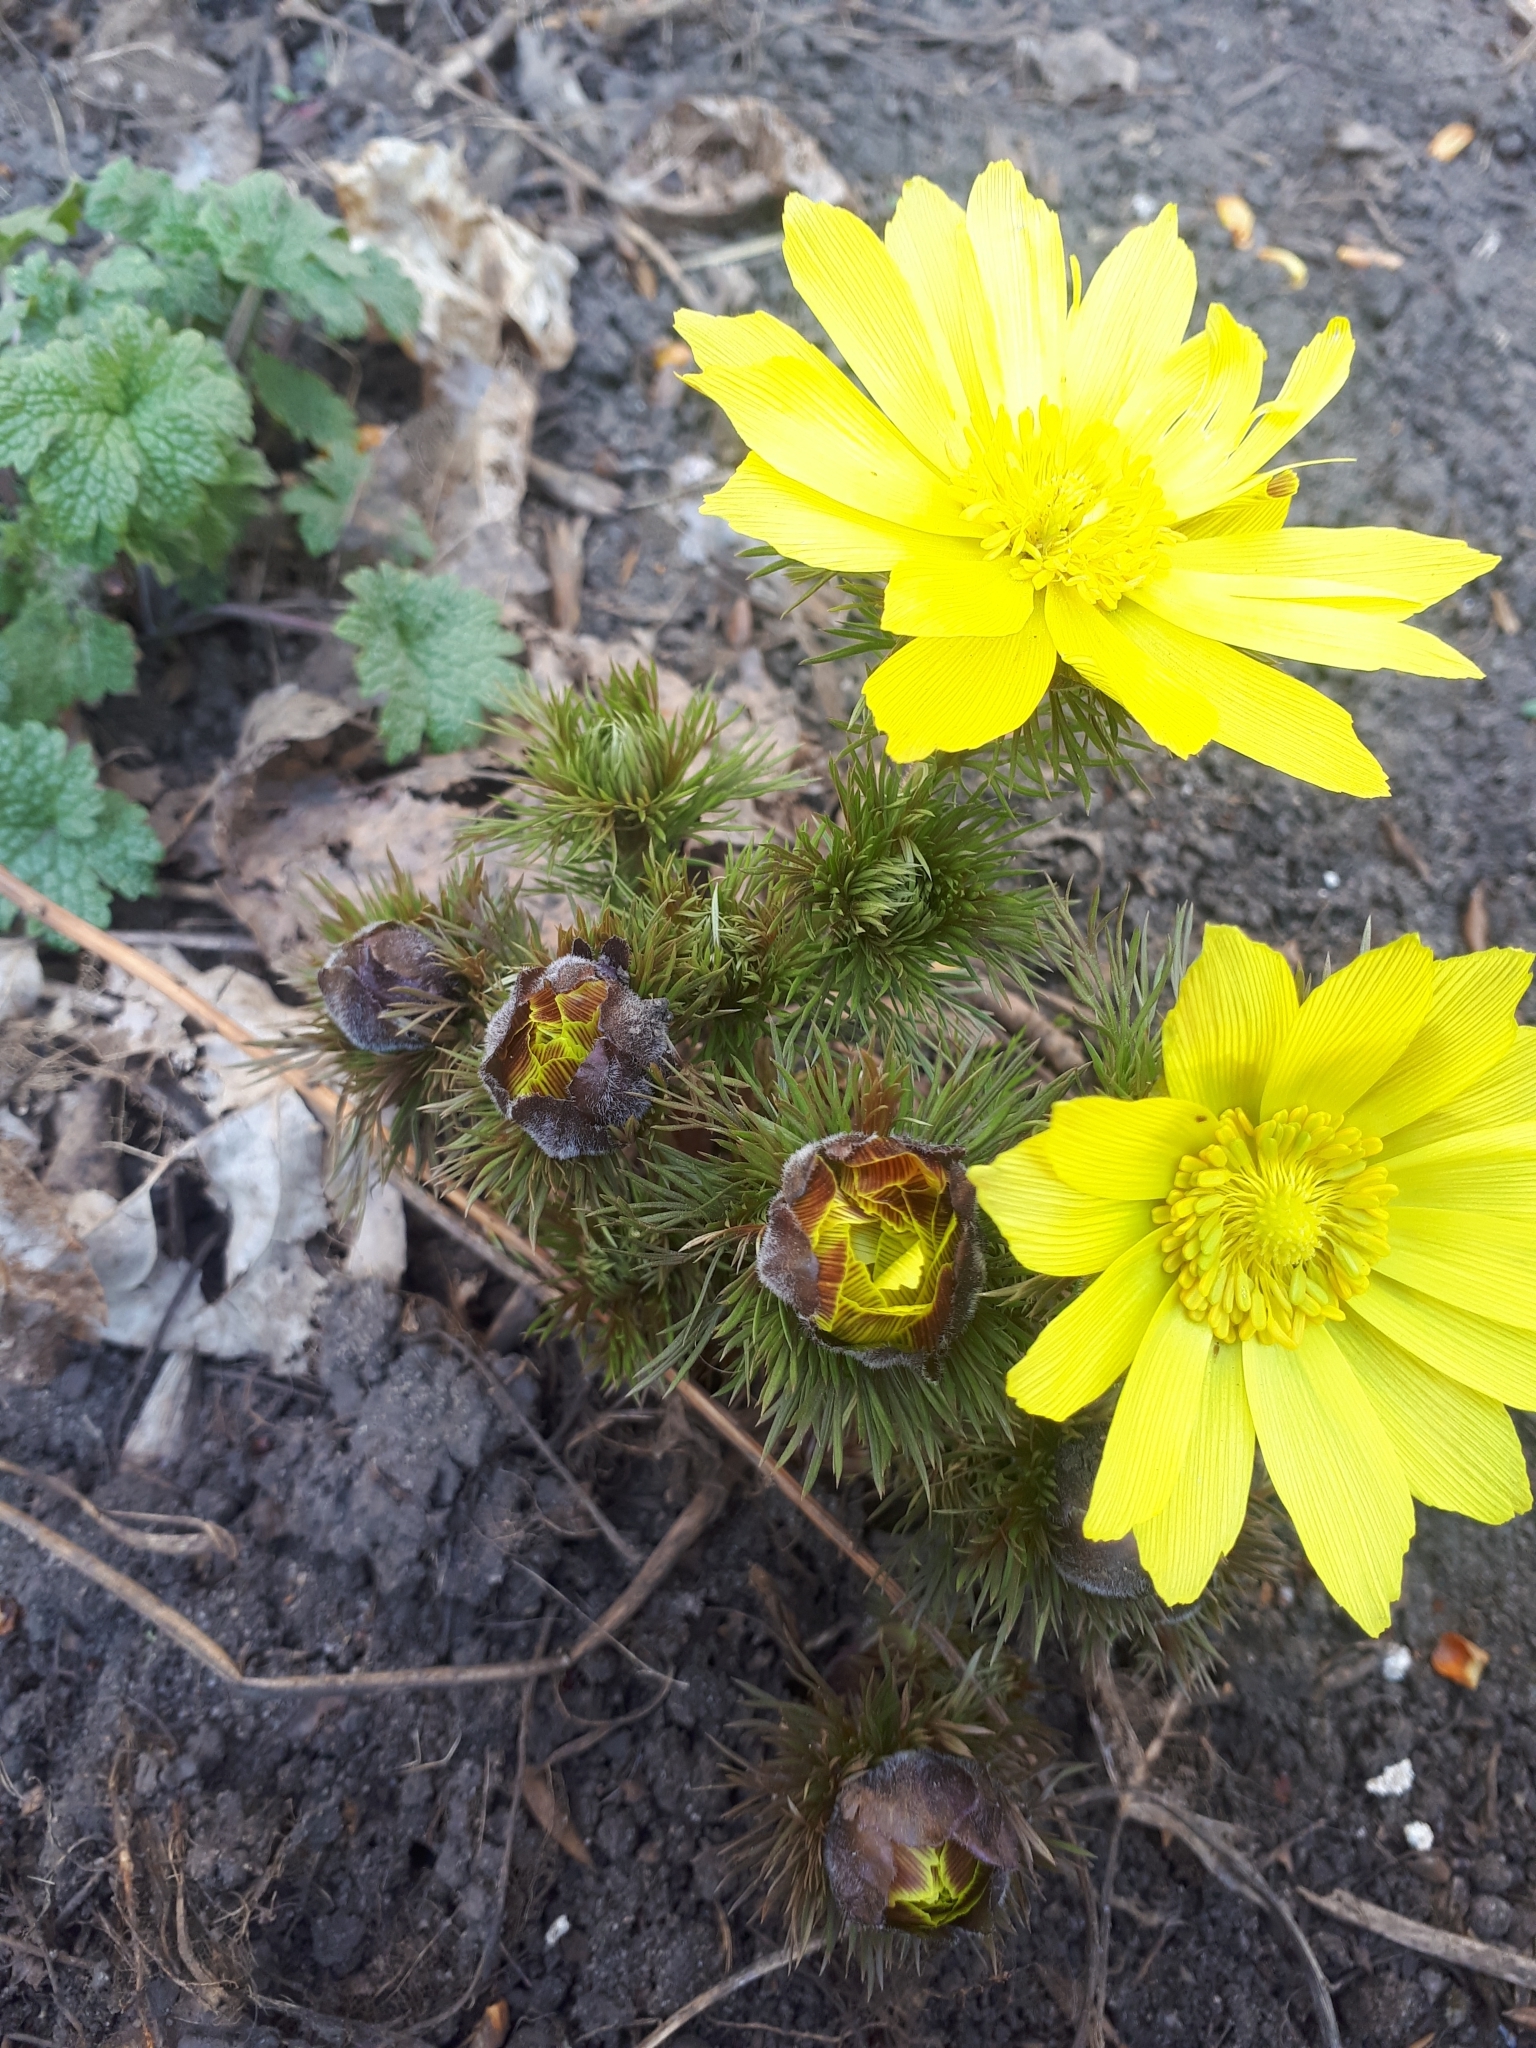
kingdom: Plantae
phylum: Tracheophyta
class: Magnoliopsida
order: Ranunculales
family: Ranunculaceae
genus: Adonis
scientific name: Adonis vernalis
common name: Yellow pheasants-eye
